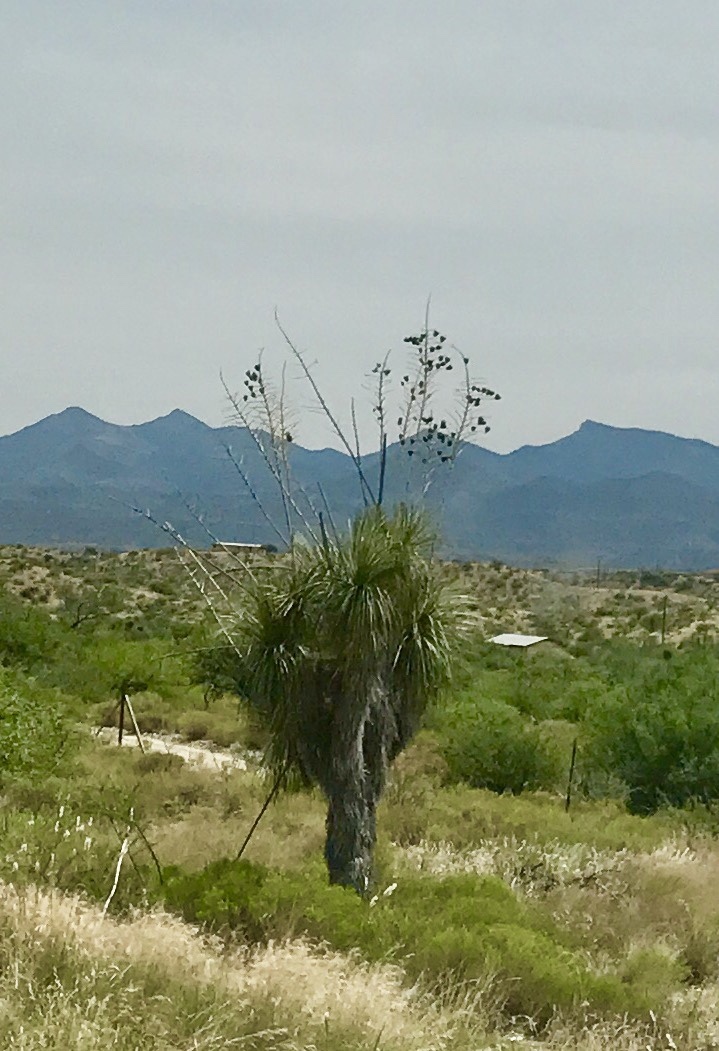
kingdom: Plantae
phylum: Tracheophyta
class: Liliopsida
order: Asparagales
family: Asparagaceae
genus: Yucca
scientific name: Yucca elata
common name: Palmella
